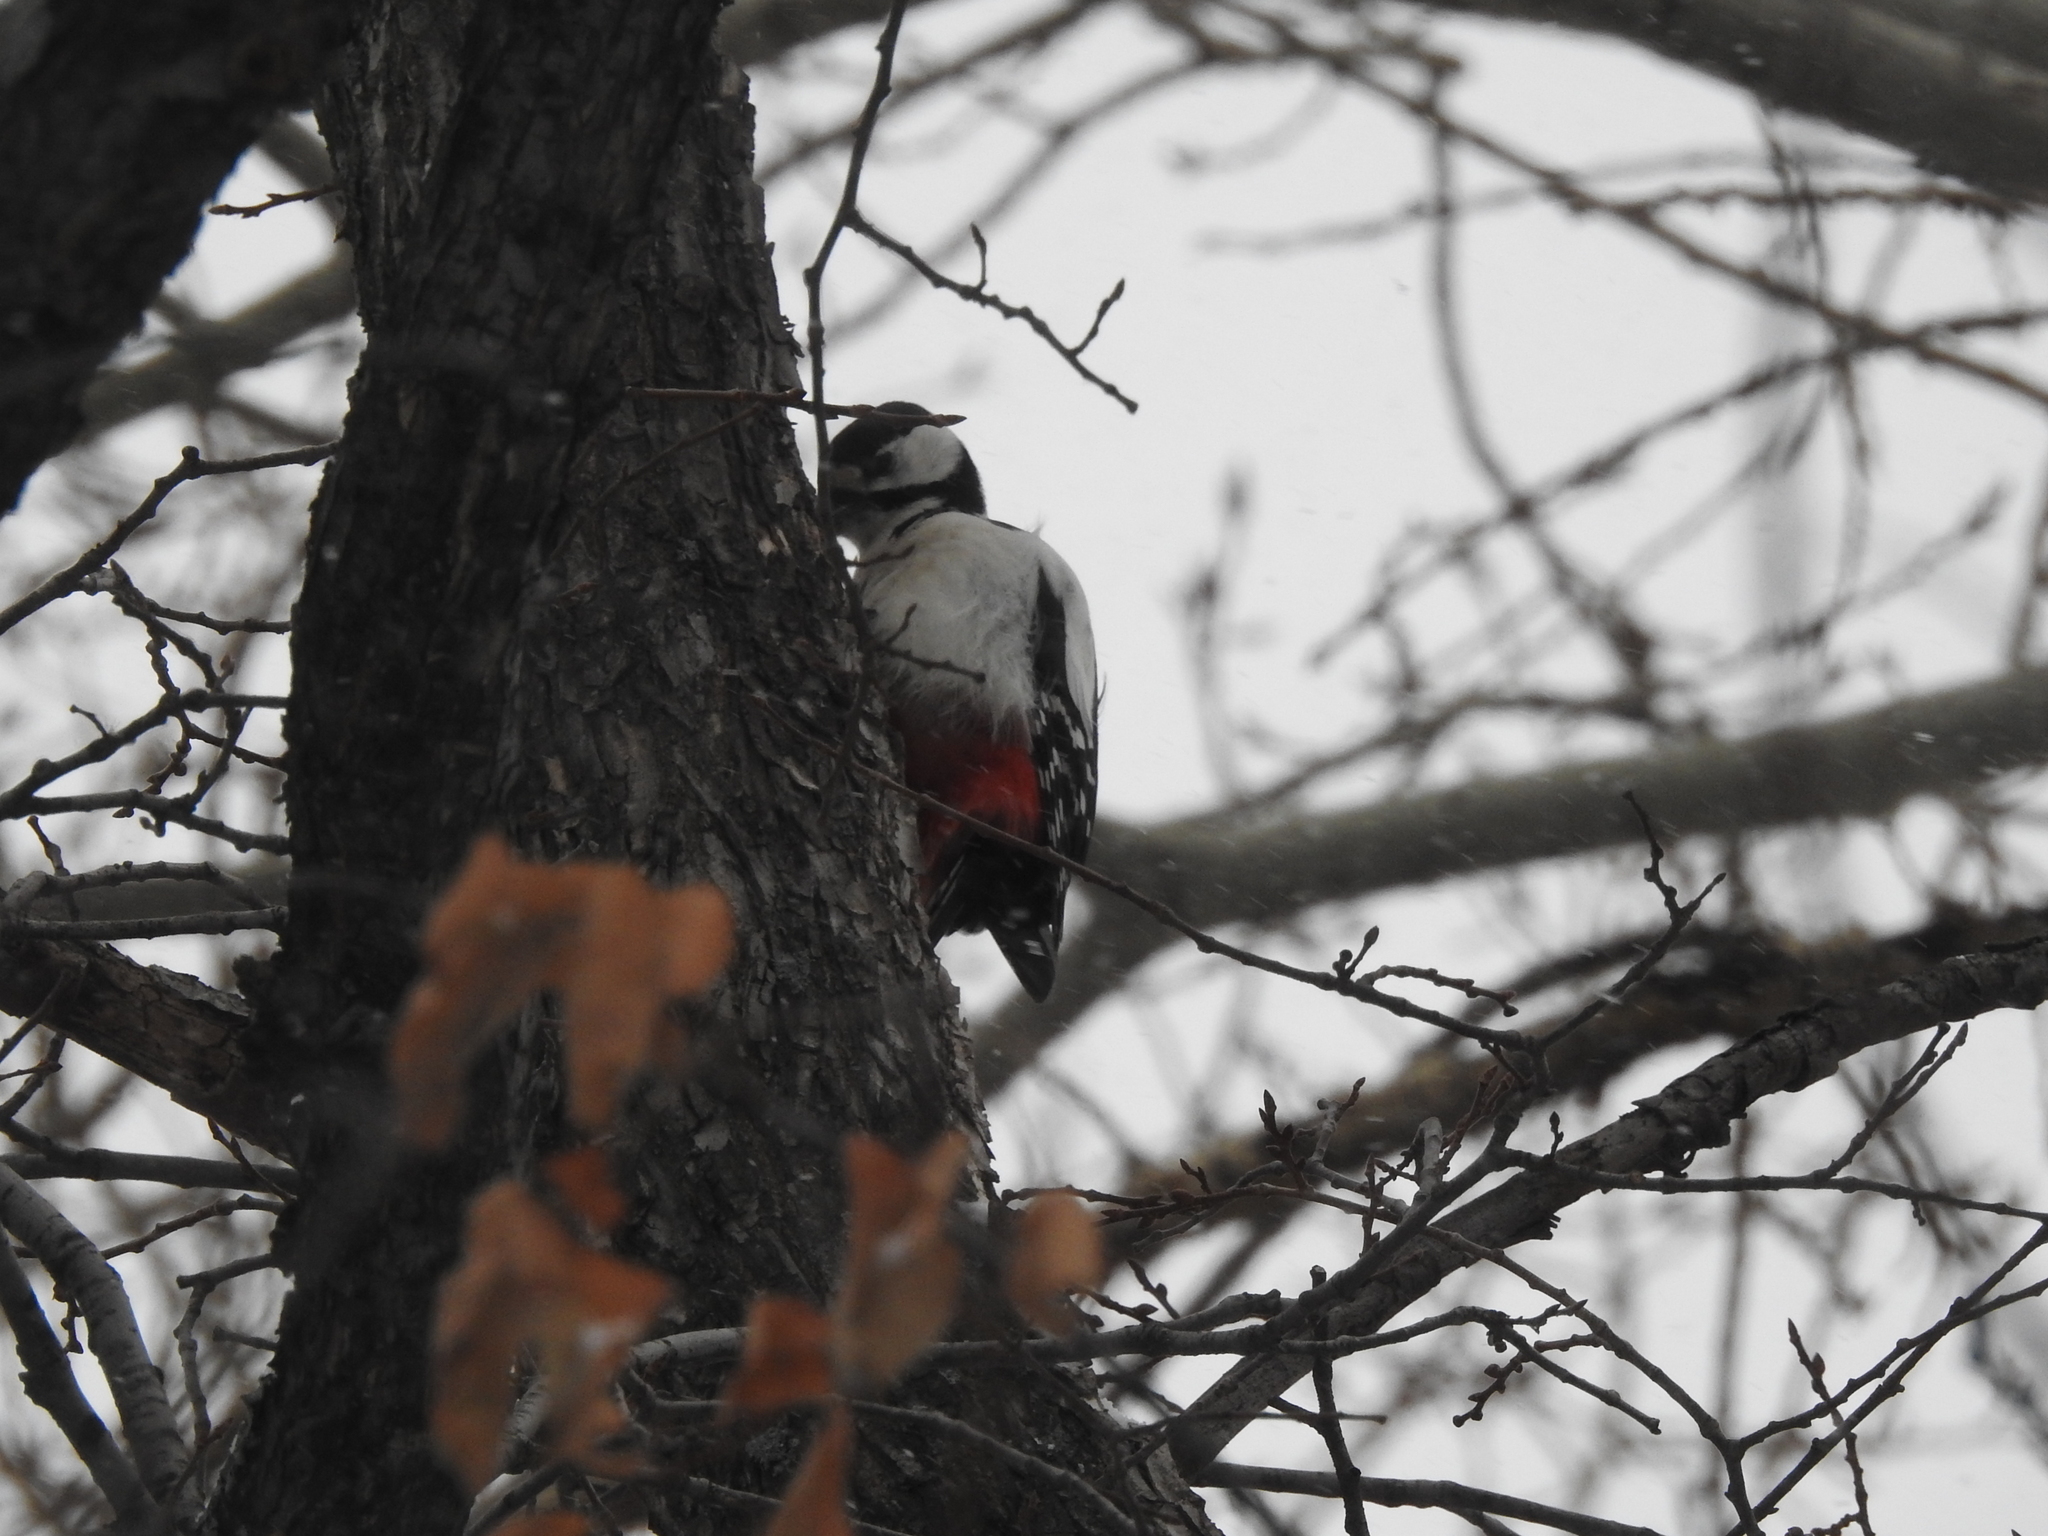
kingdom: Animalia
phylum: Chordata
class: Aves
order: Piciformes
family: Picidae
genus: Dendrocopos
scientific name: Dendrocopos major
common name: Great spotted woodpecker
